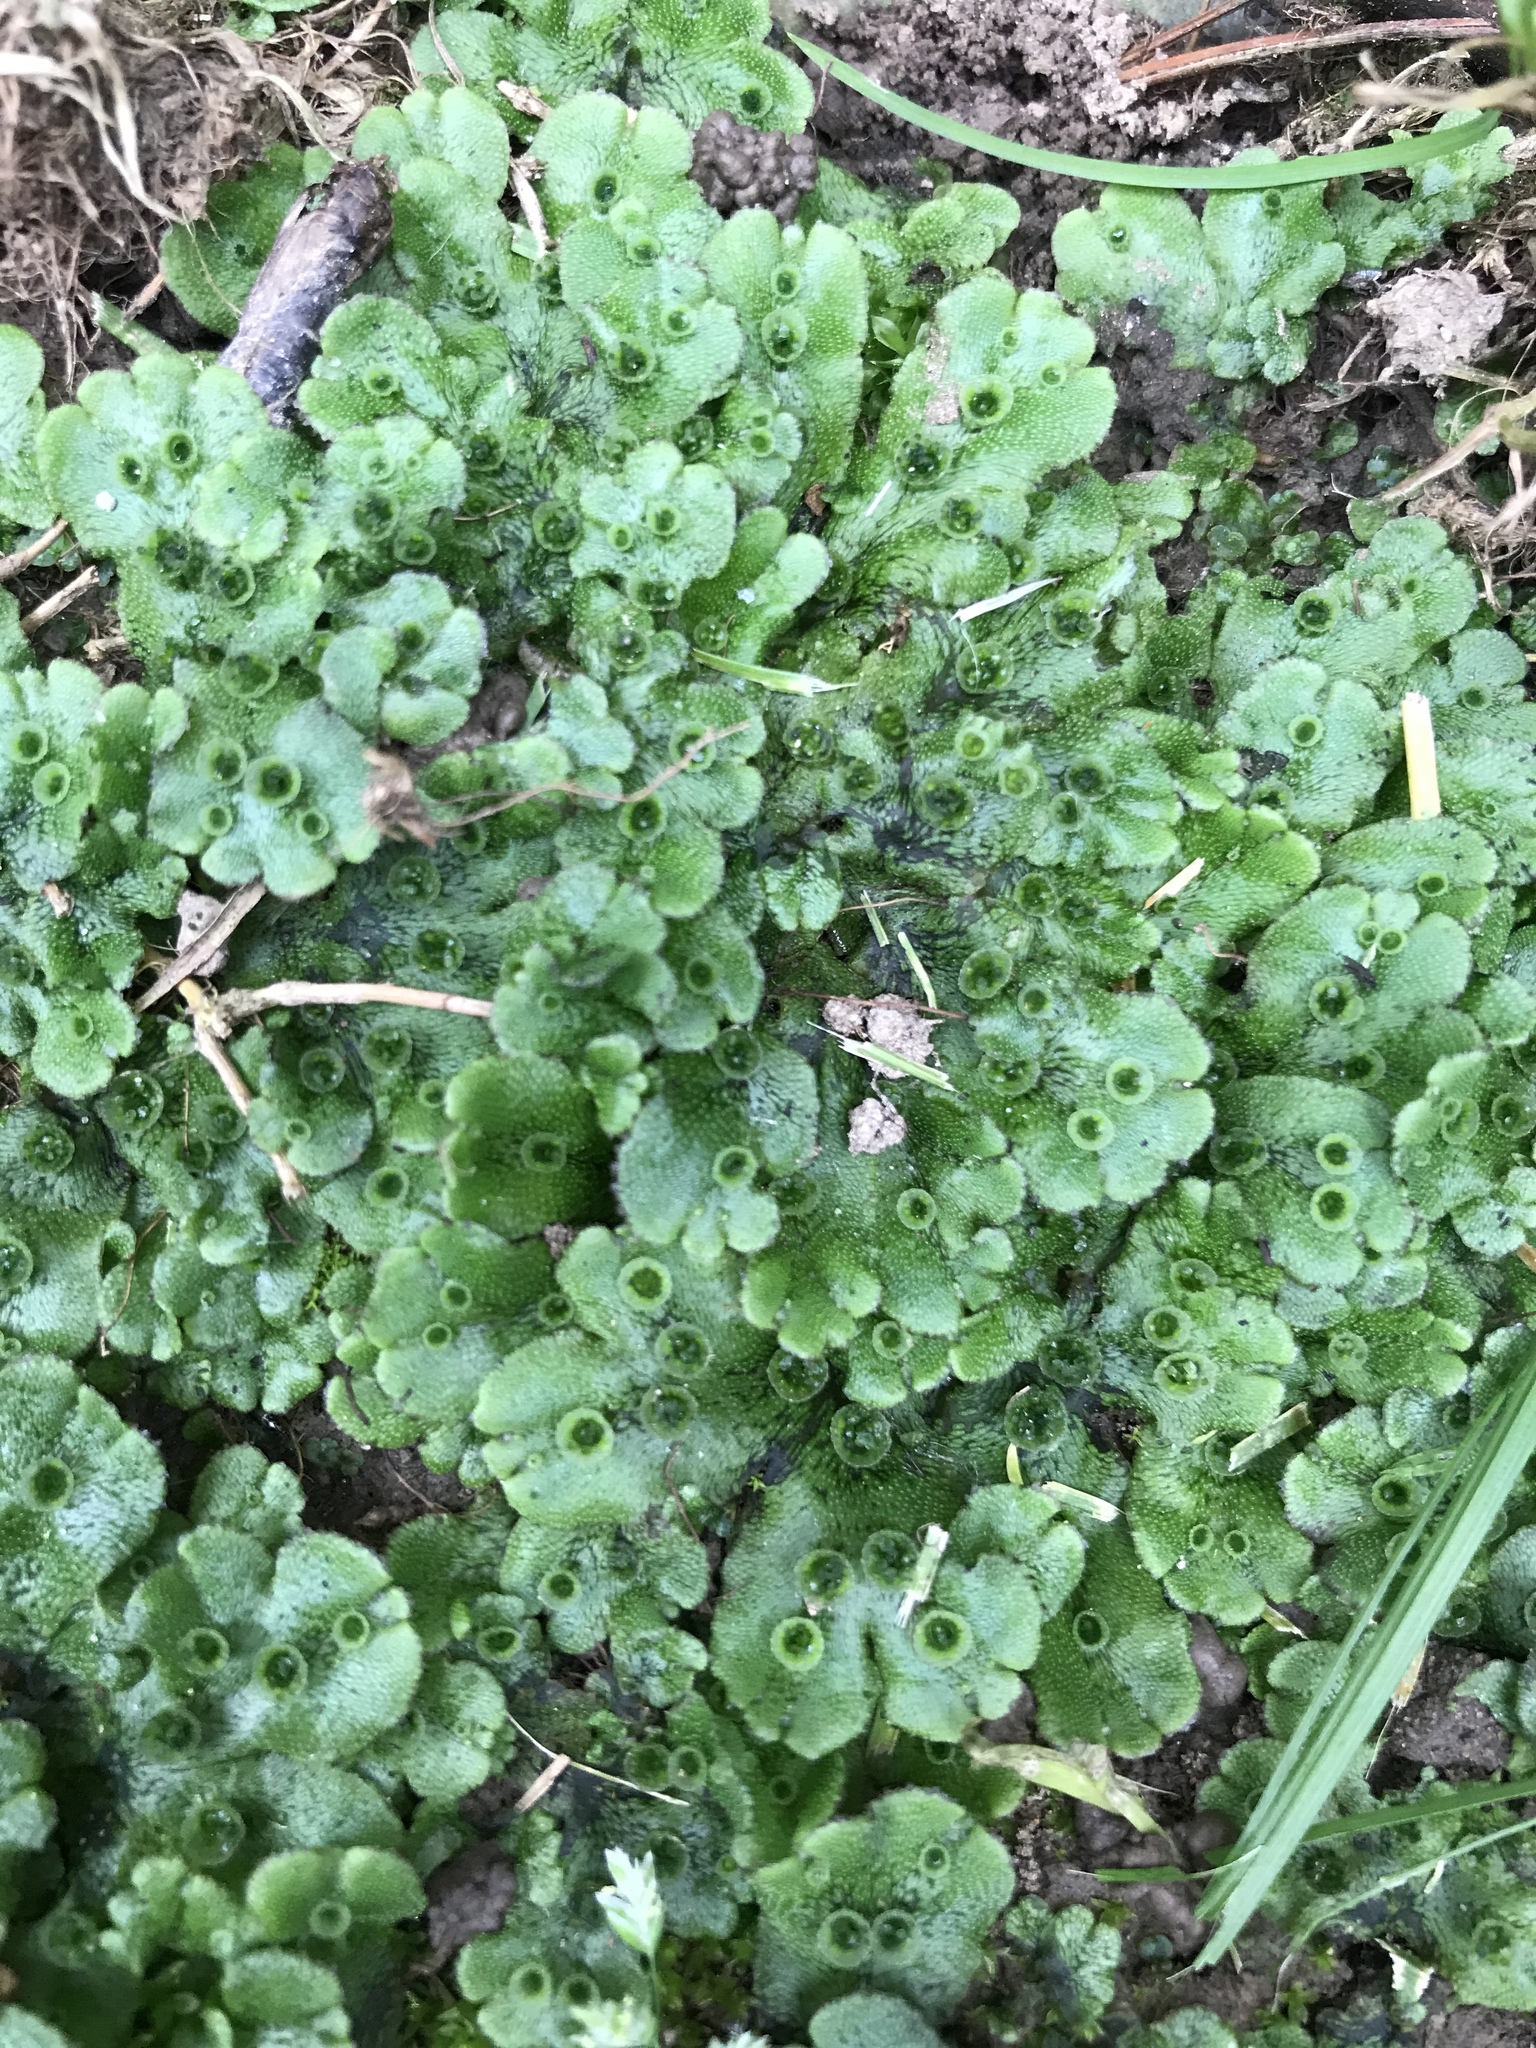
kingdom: Plantae
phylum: Marchantiophyta
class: Marchantiopsida
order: Marchantiales
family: Marchantiaceae
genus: Marchantia
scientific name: Marchantia polymorpha
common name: Common liverwort
